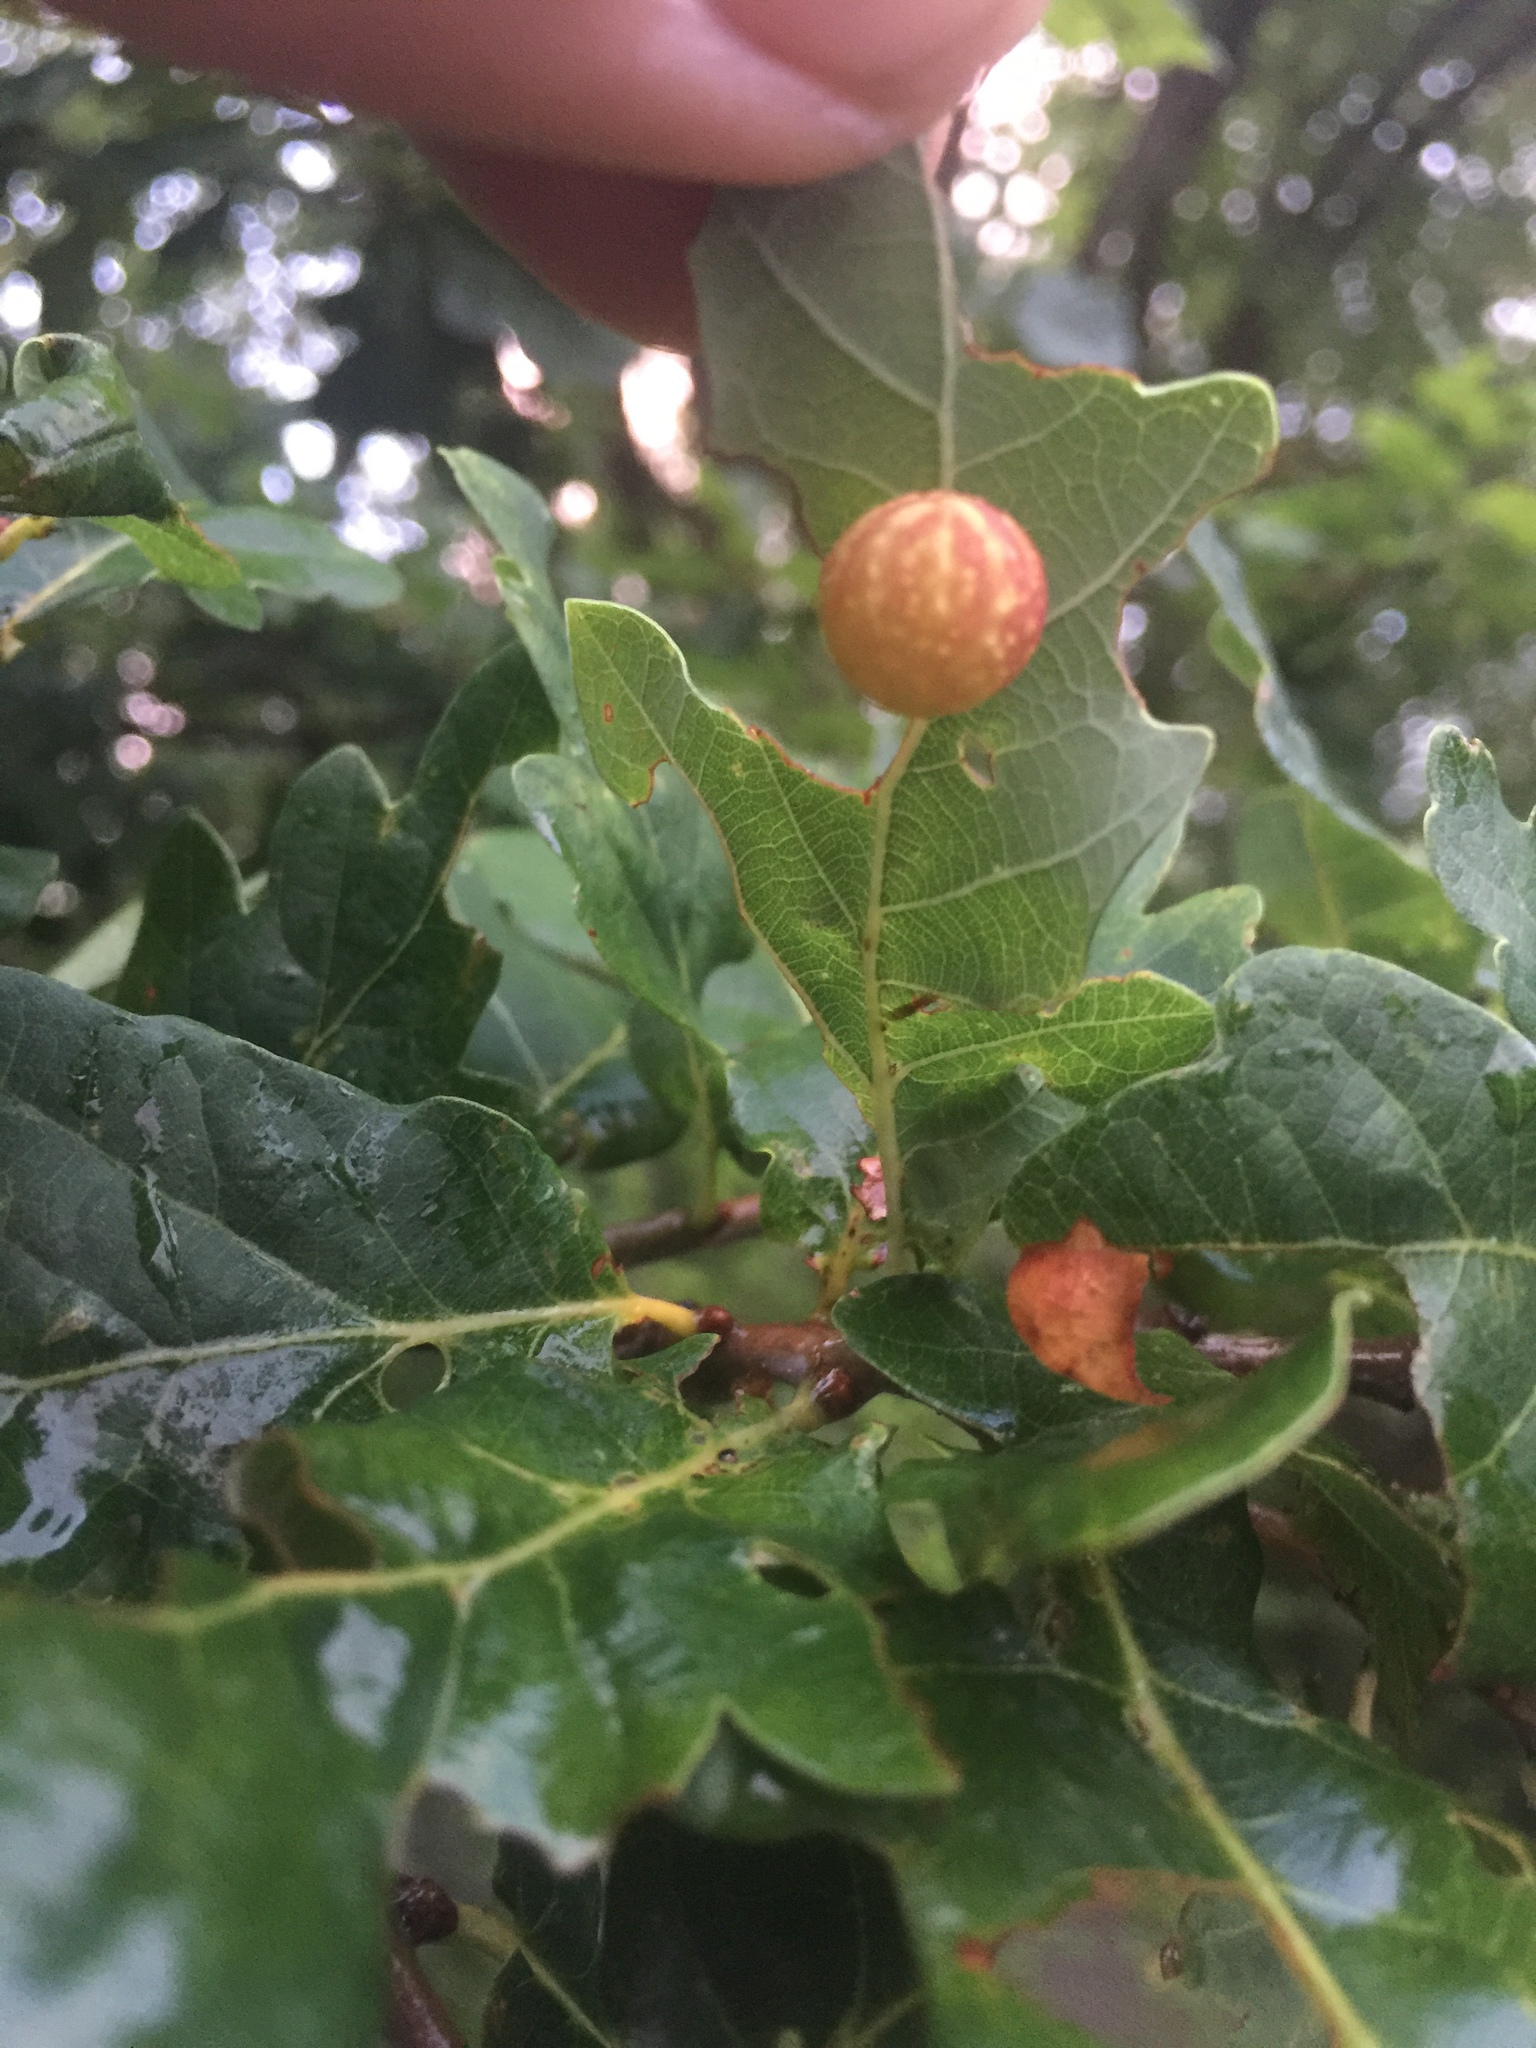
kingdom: Animalia
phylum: Arthropoda
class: Insecta
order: Hymenoptera
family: Cynipidae
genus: Cynips
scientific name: Cynips longiventris
